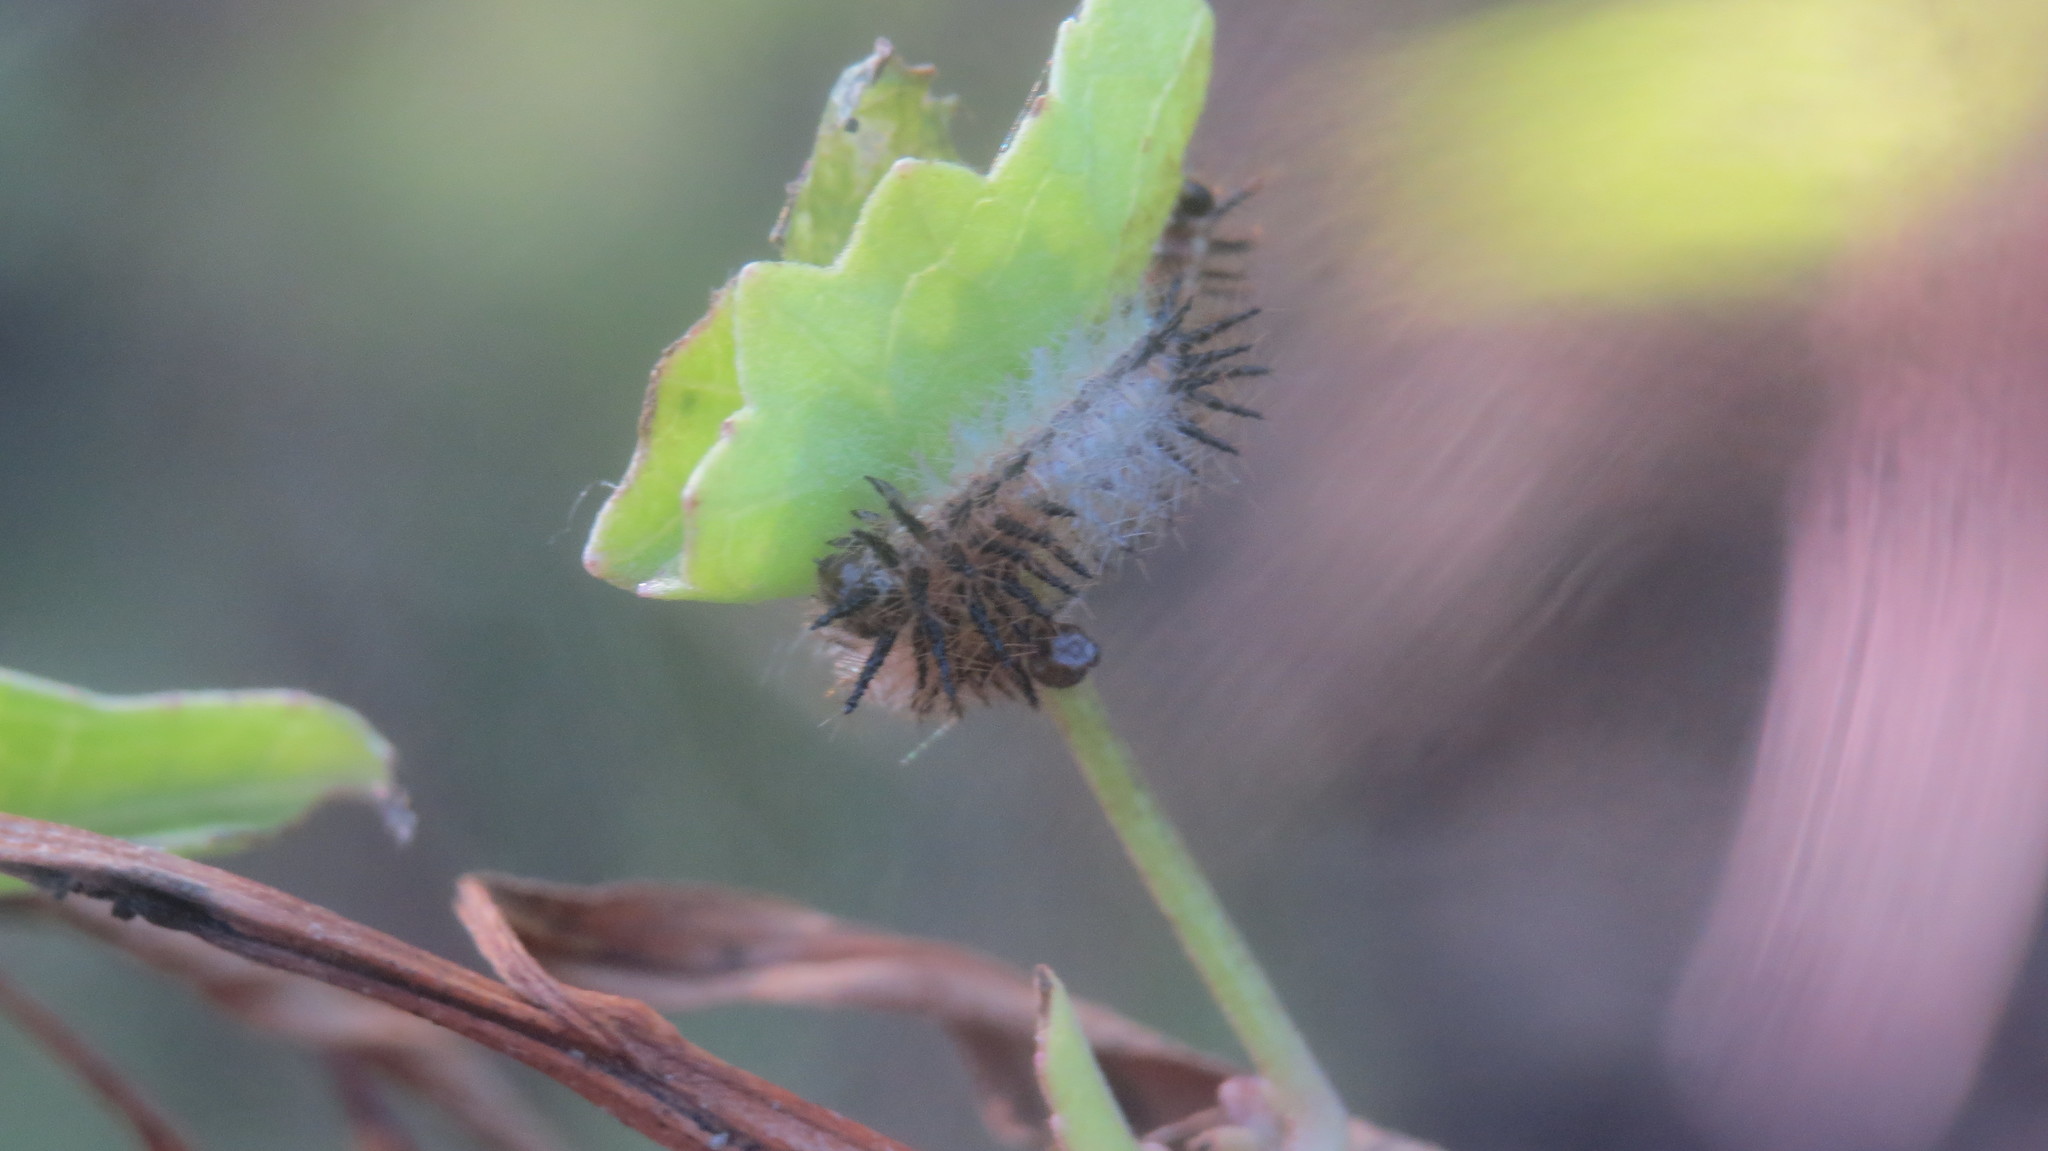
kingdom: Animalia
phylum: Arthropoda
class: Insecta
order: Lepidoptera
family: Nymphalidae
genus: Actinote
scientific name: Actinote
